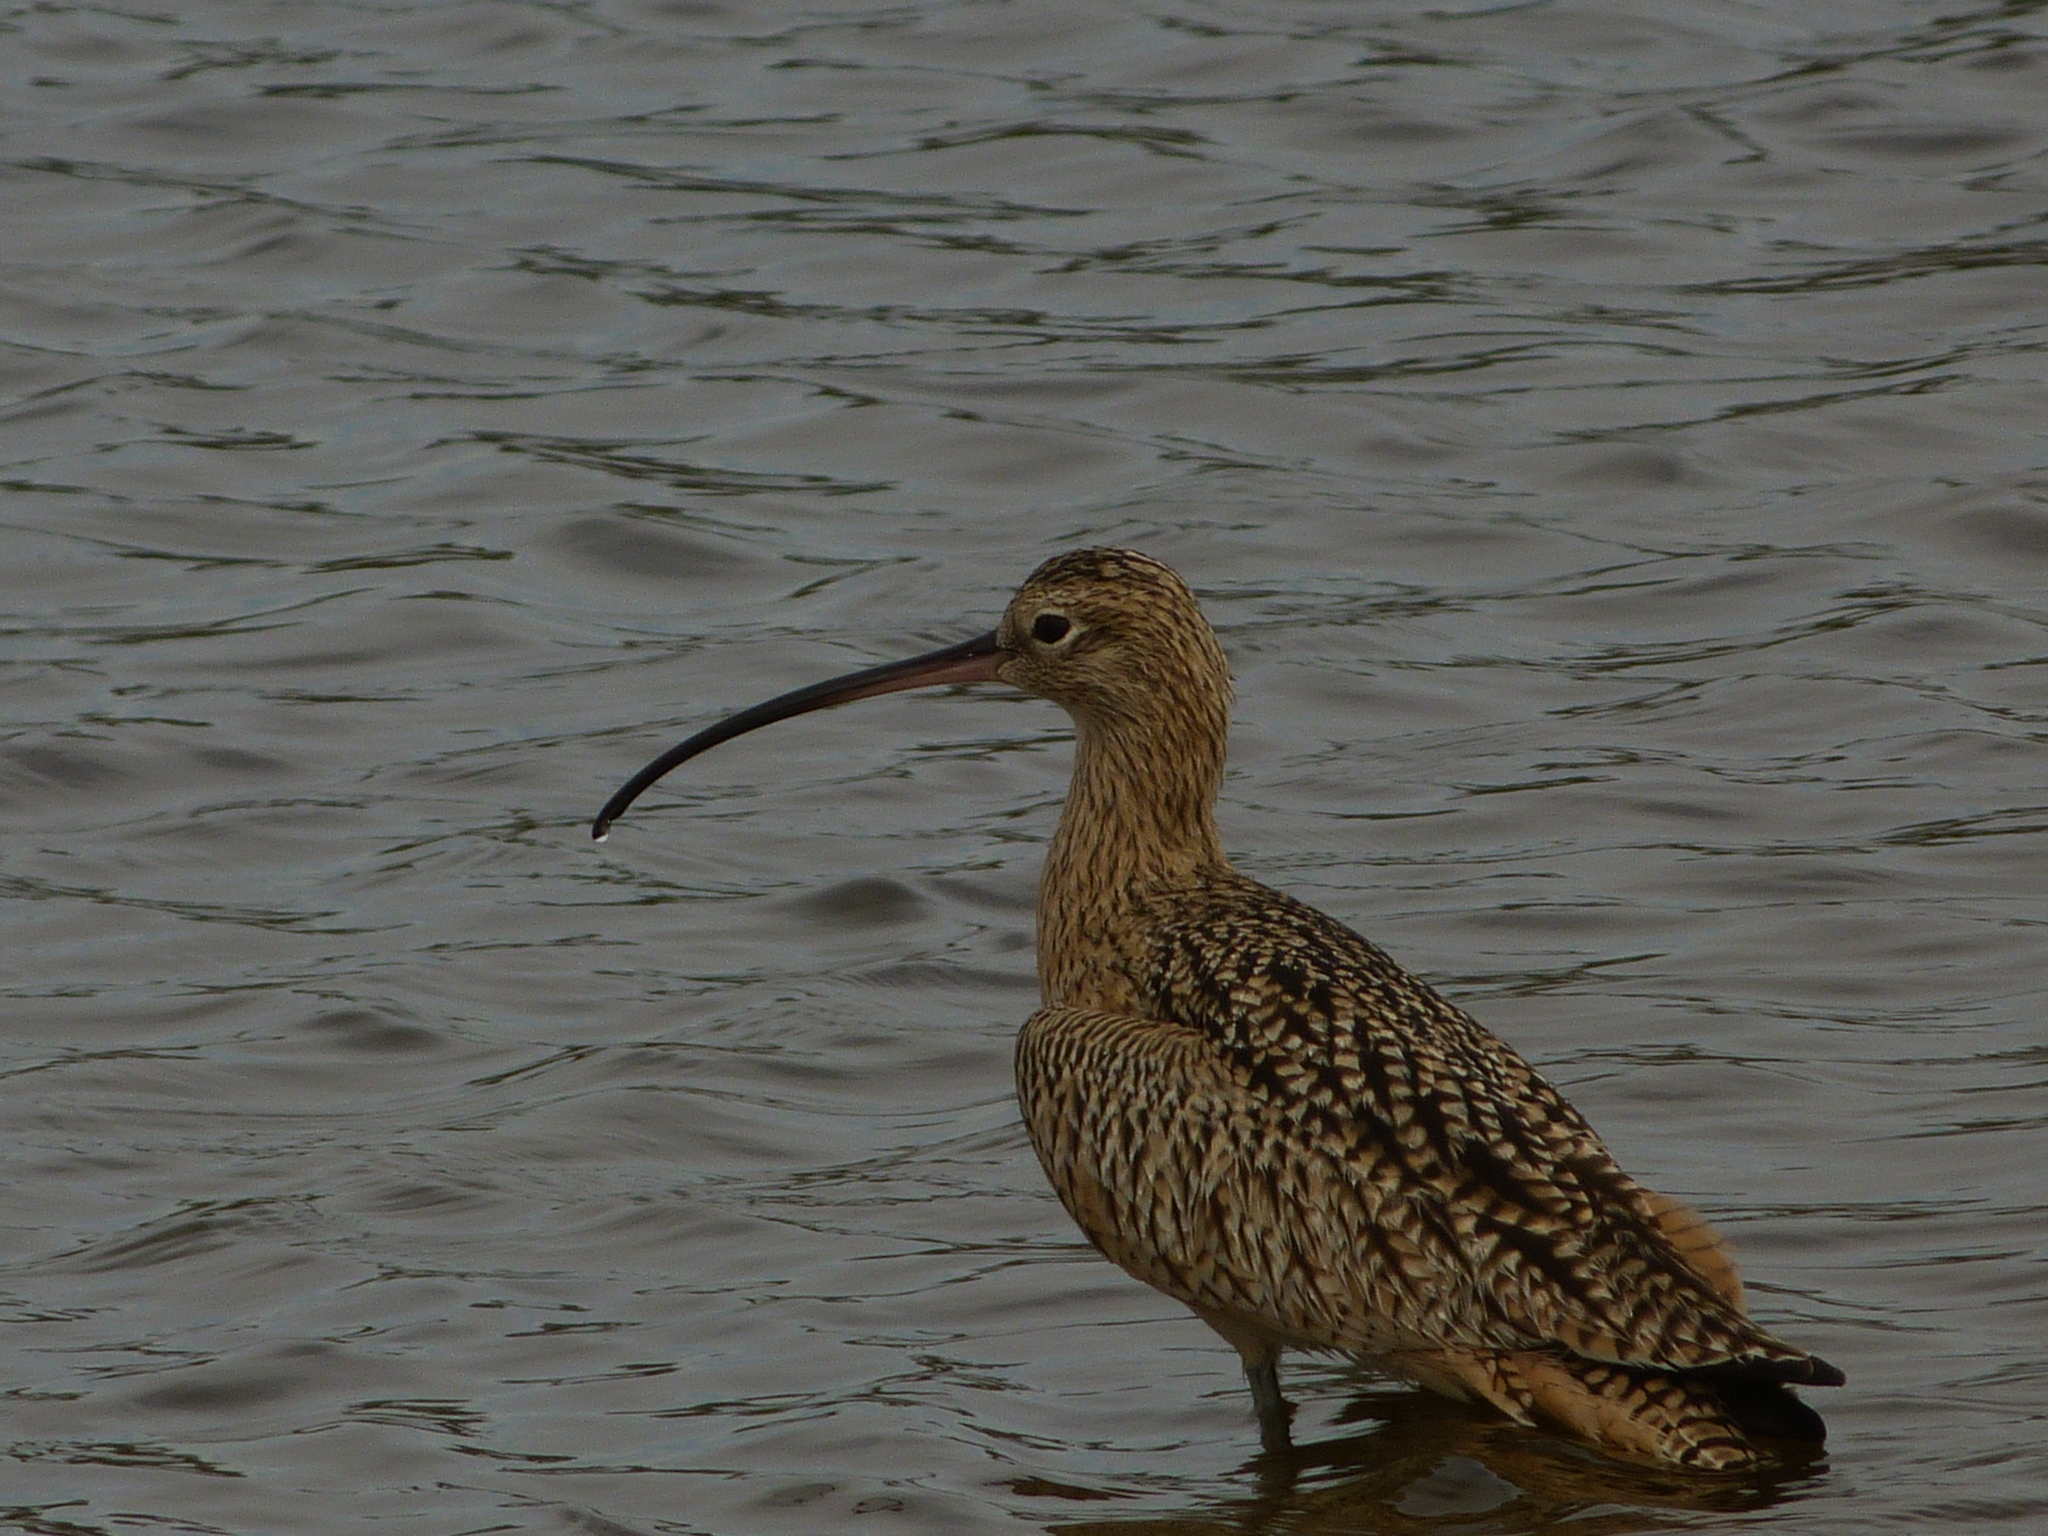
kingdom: Animalia
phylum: Chordata
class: Aves
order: Charadriiformes
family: Scolopacidae
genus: Numenius
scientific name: Numenius americanus
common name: Long-billed curlew
